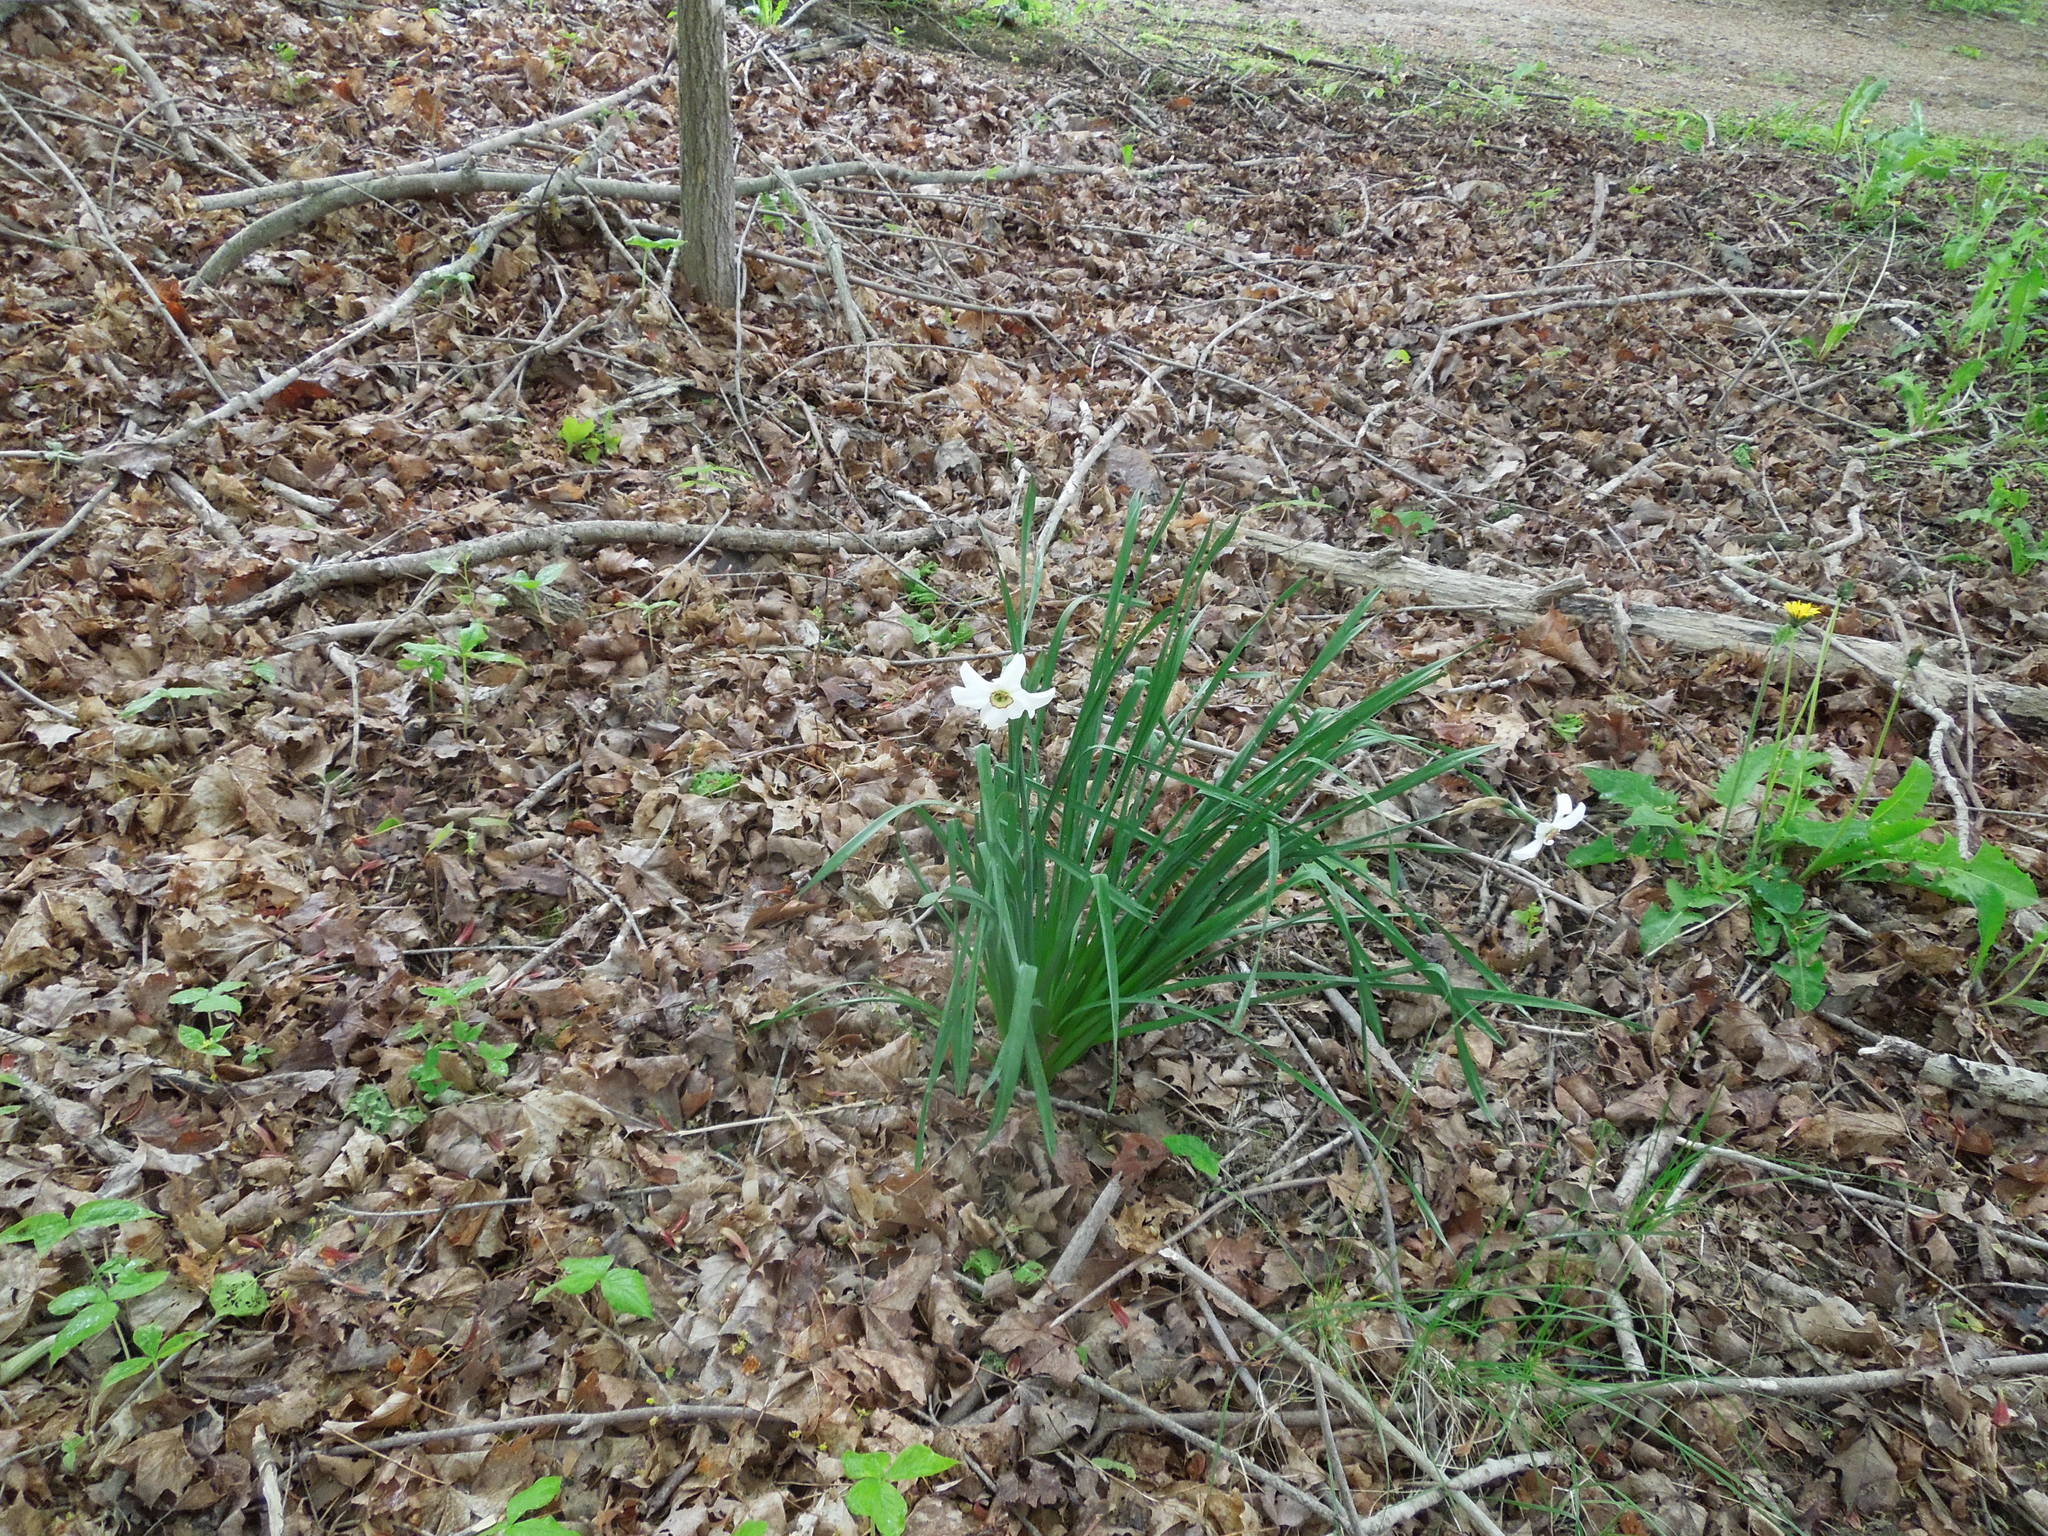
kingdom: Plantae
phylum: Tracheophyta
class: Liliopsida
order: Asparagales
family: Amaryllidaceae
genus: Narcissus
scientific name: Narcissus poeticus
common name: Pheasant's-eye daffodil
